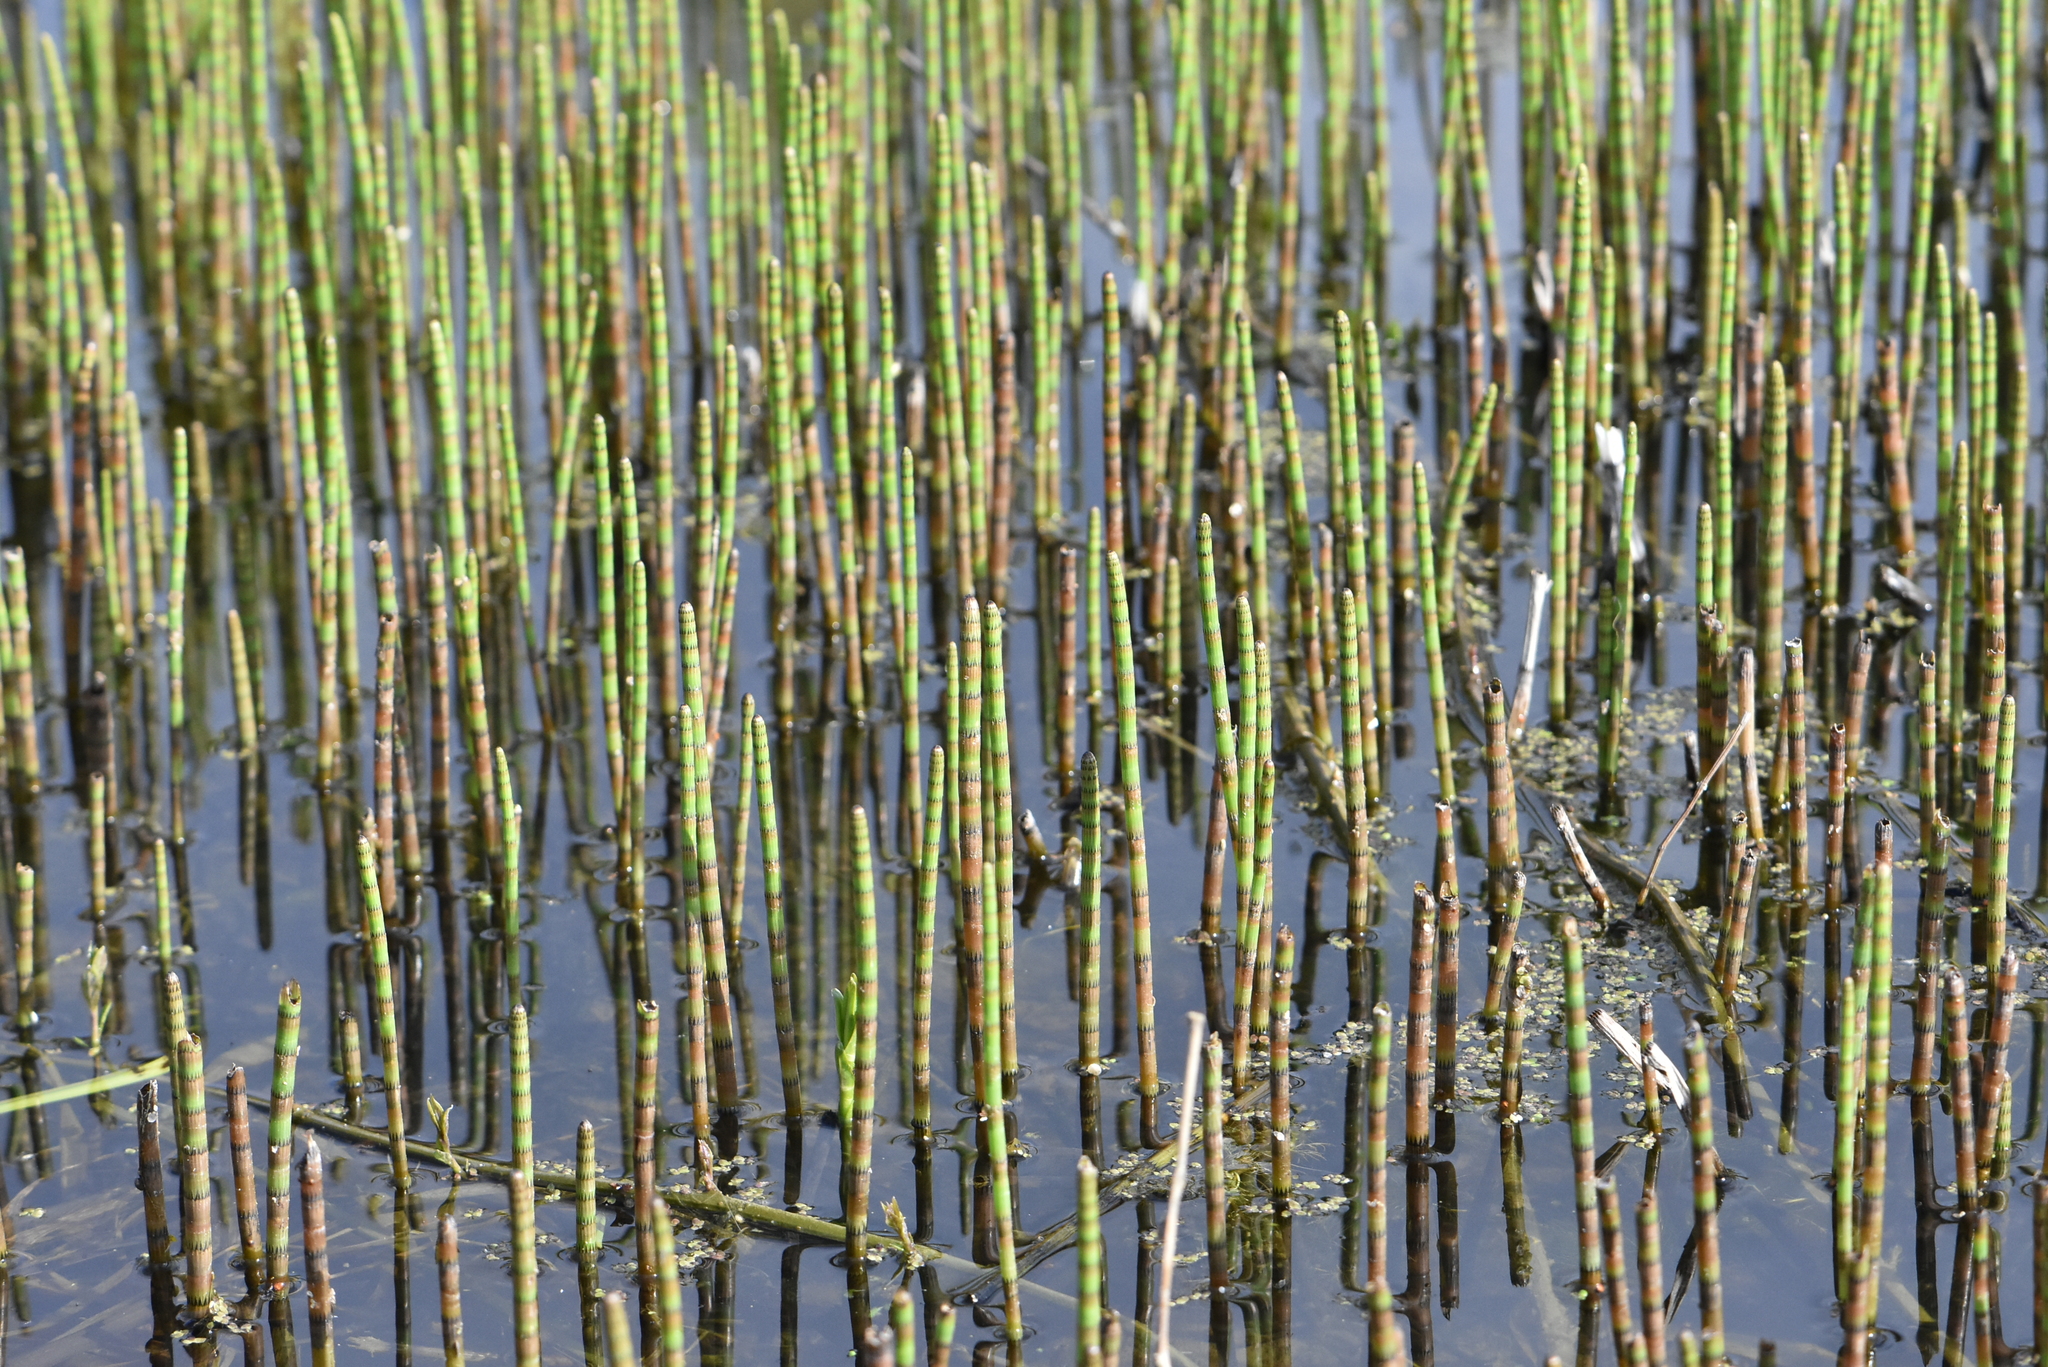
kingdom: Plantae
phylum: Tracheophyta
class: Polypodiopsida
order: Equisetales
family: Equisetaceae
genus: Equisetum
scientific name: Equisetum fluviatile
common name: Water horsetail
